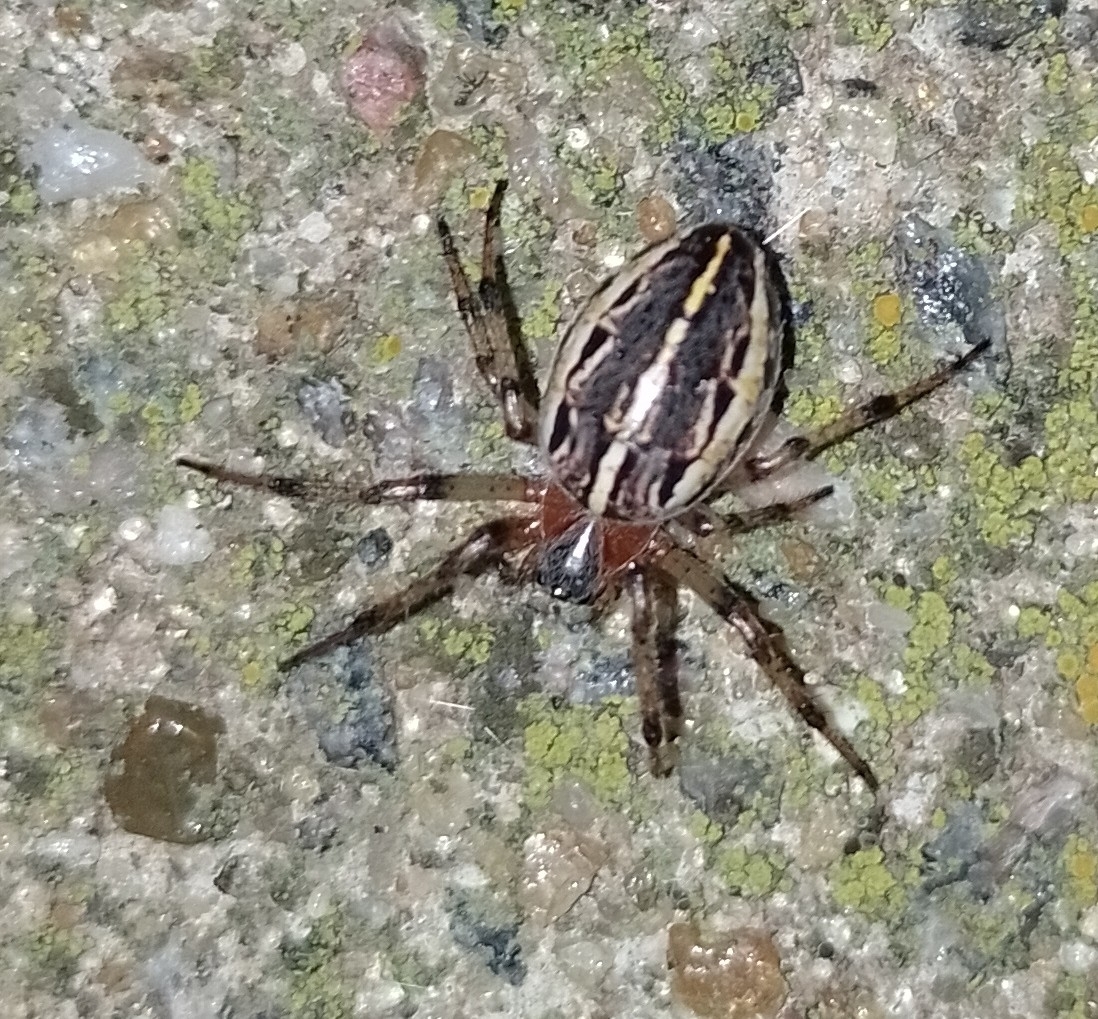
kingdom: Animalia
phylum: Arthropoda
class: Arachnida
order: Araneae
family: Araneidae
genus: Alpaida
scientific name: Alpaida veniliae
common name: Orb weavers
